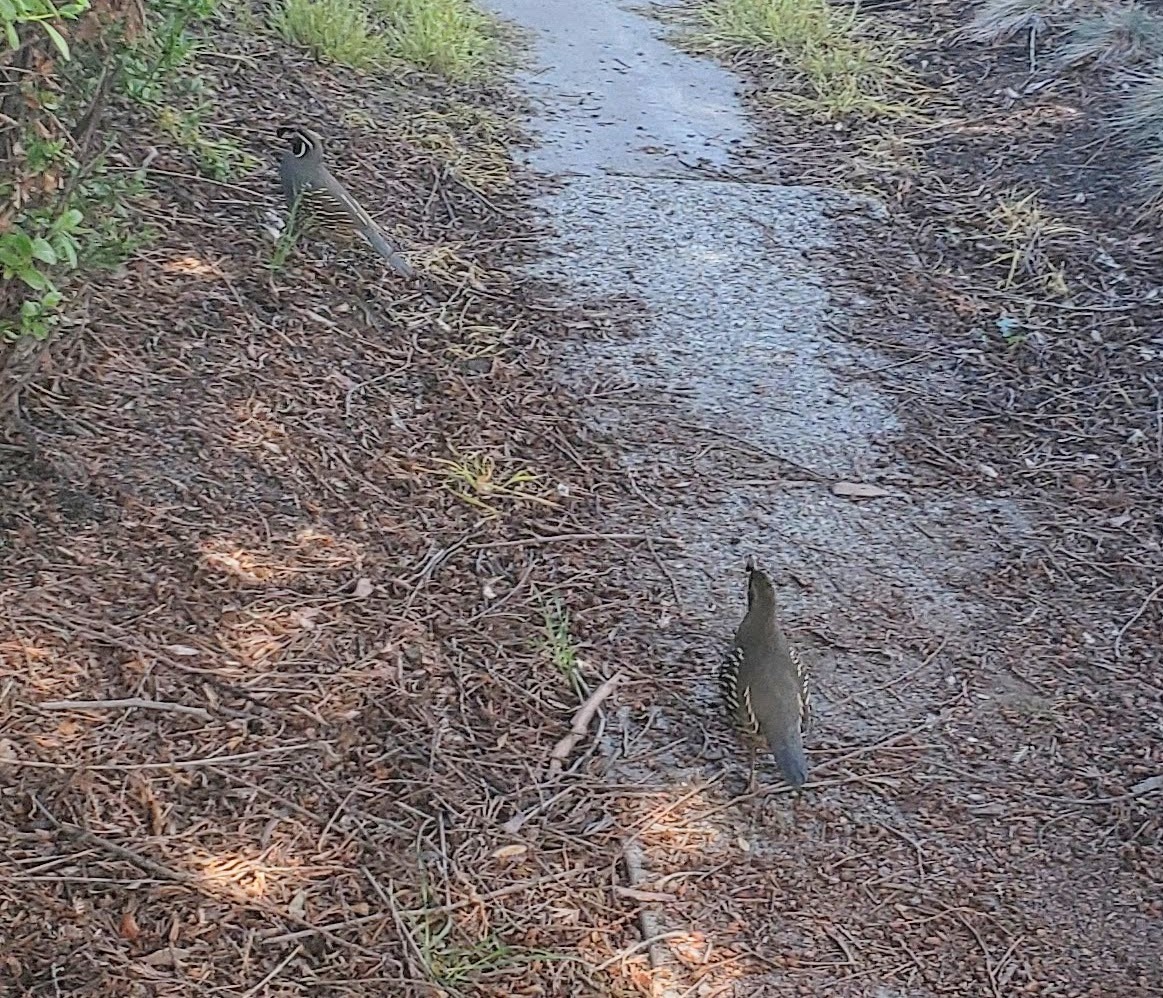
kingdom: Animalia
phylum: Chordata
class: Aves
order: Galliformes
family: Odontophoridae
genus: Callipepla
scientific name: Callipepla californica
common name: California quail
